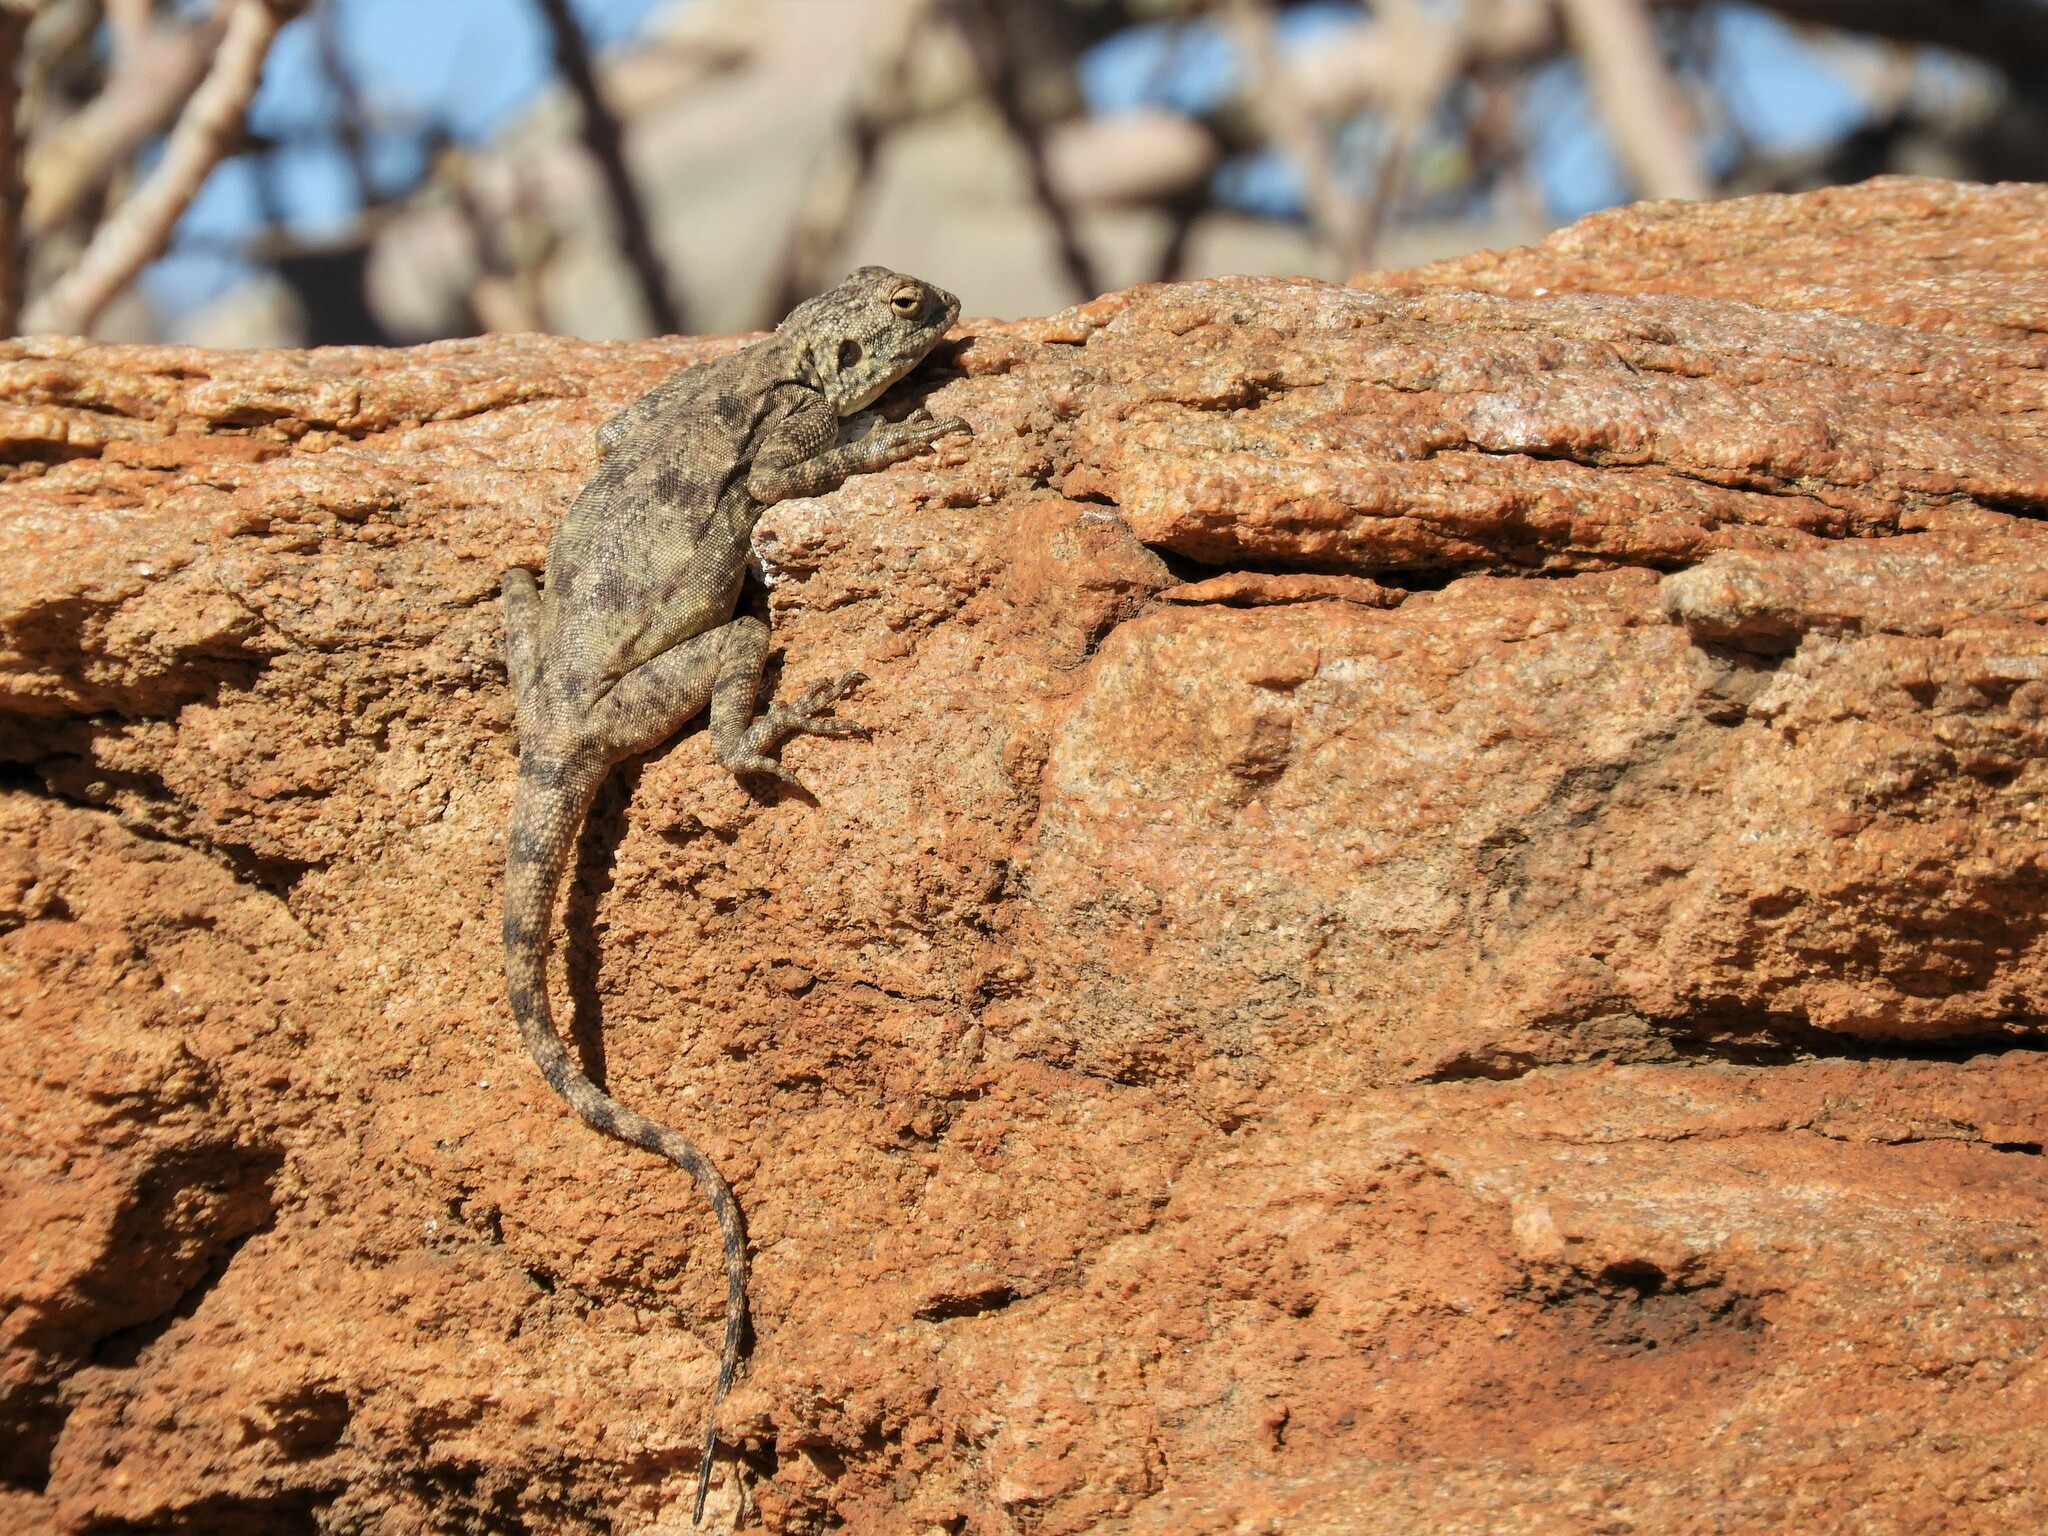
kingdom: Animalia
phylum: Chordata
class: Squamata
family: Agamidae
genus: Agama
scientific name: Agama atra
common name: Southern african rock agama
